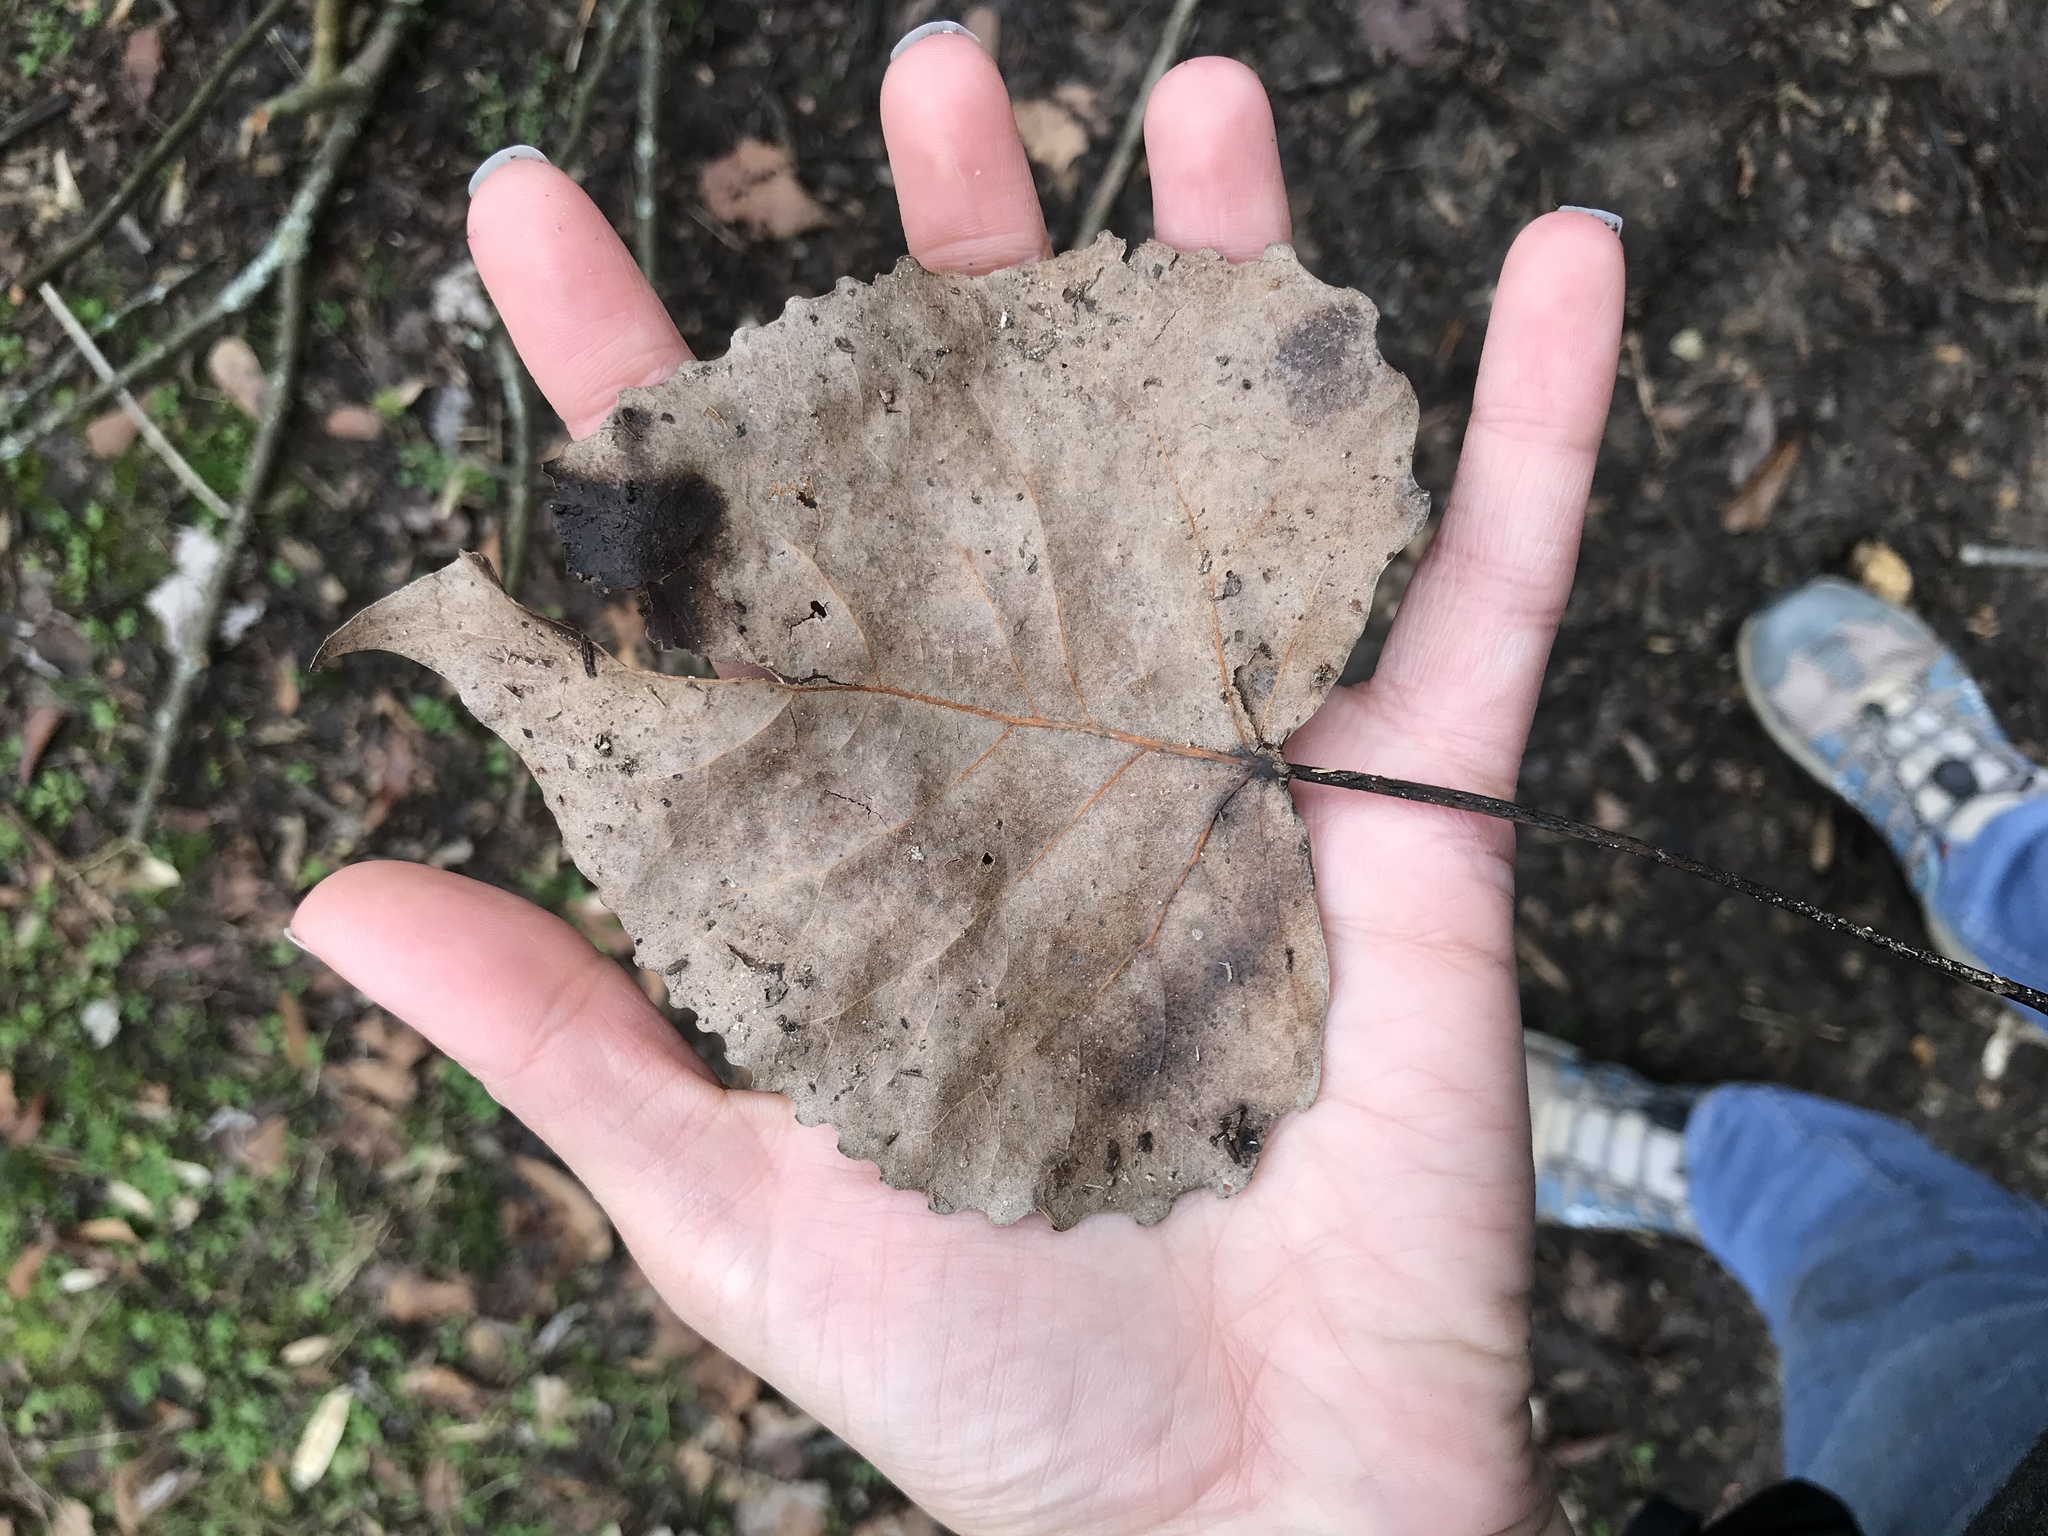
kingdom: Plantae
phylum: Tracheophyta
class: Magnoliopsida
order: Malpighiales
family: Salicaceae
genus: Populus
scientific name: Populus deltoides
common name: Eastern cottonwood
